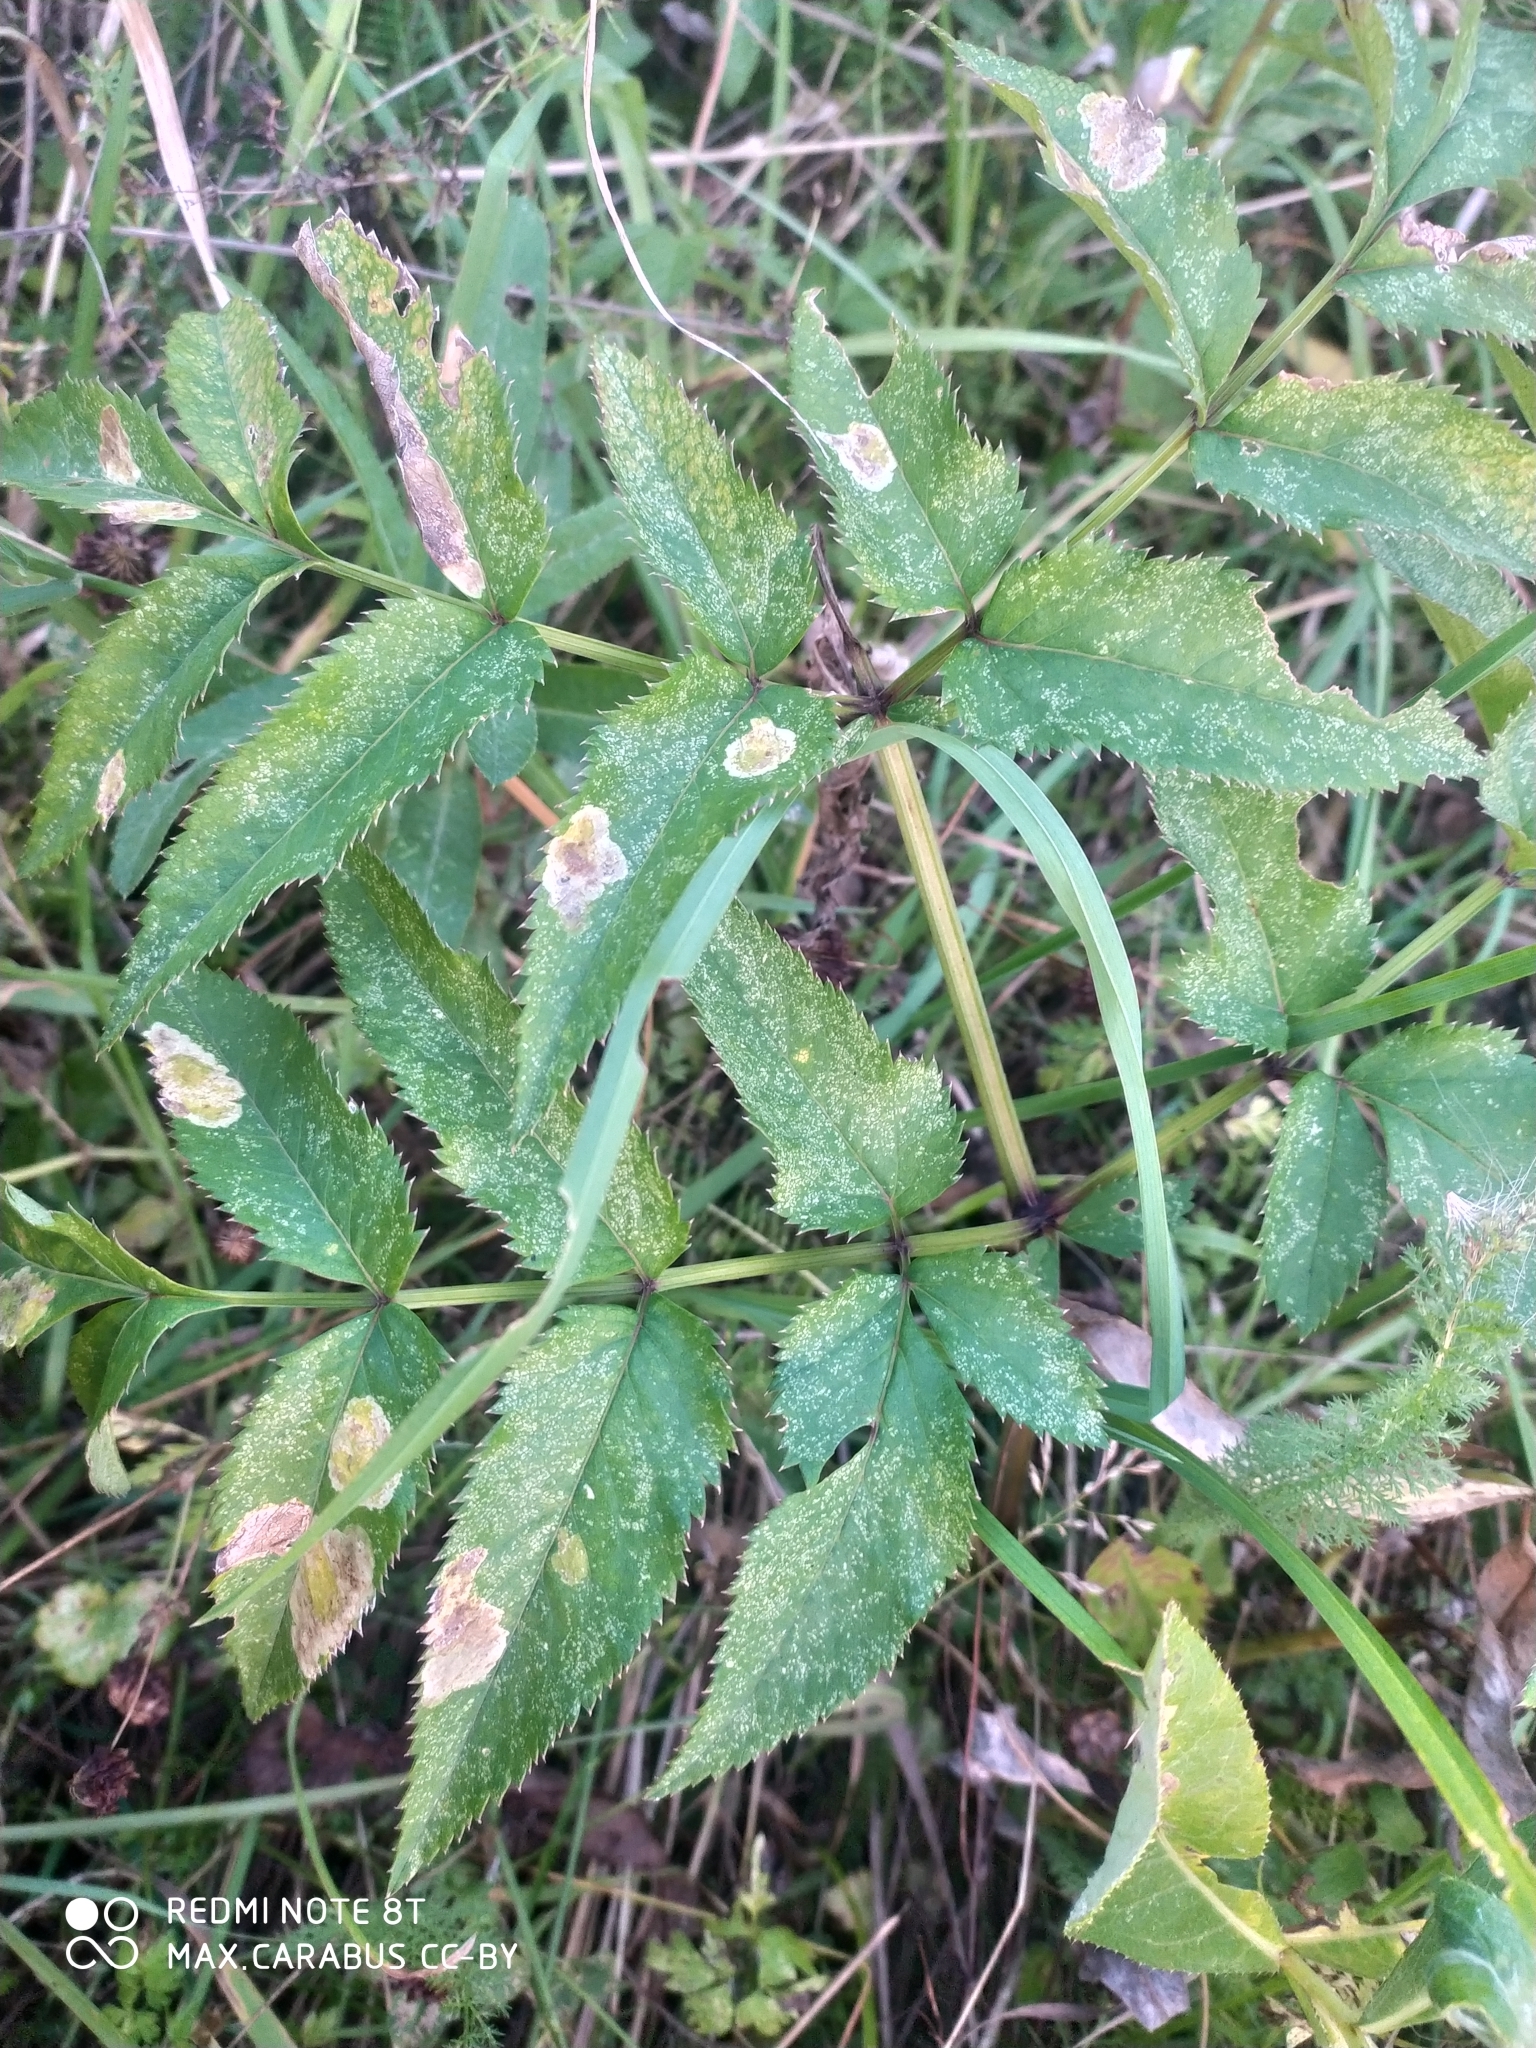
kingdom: Plantae
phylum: Tracheophyta
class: Magnoliopsida
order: Apiales
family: Apiaceae
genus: Angelica
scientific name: Angelica sylvestris
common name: Wild angelica
